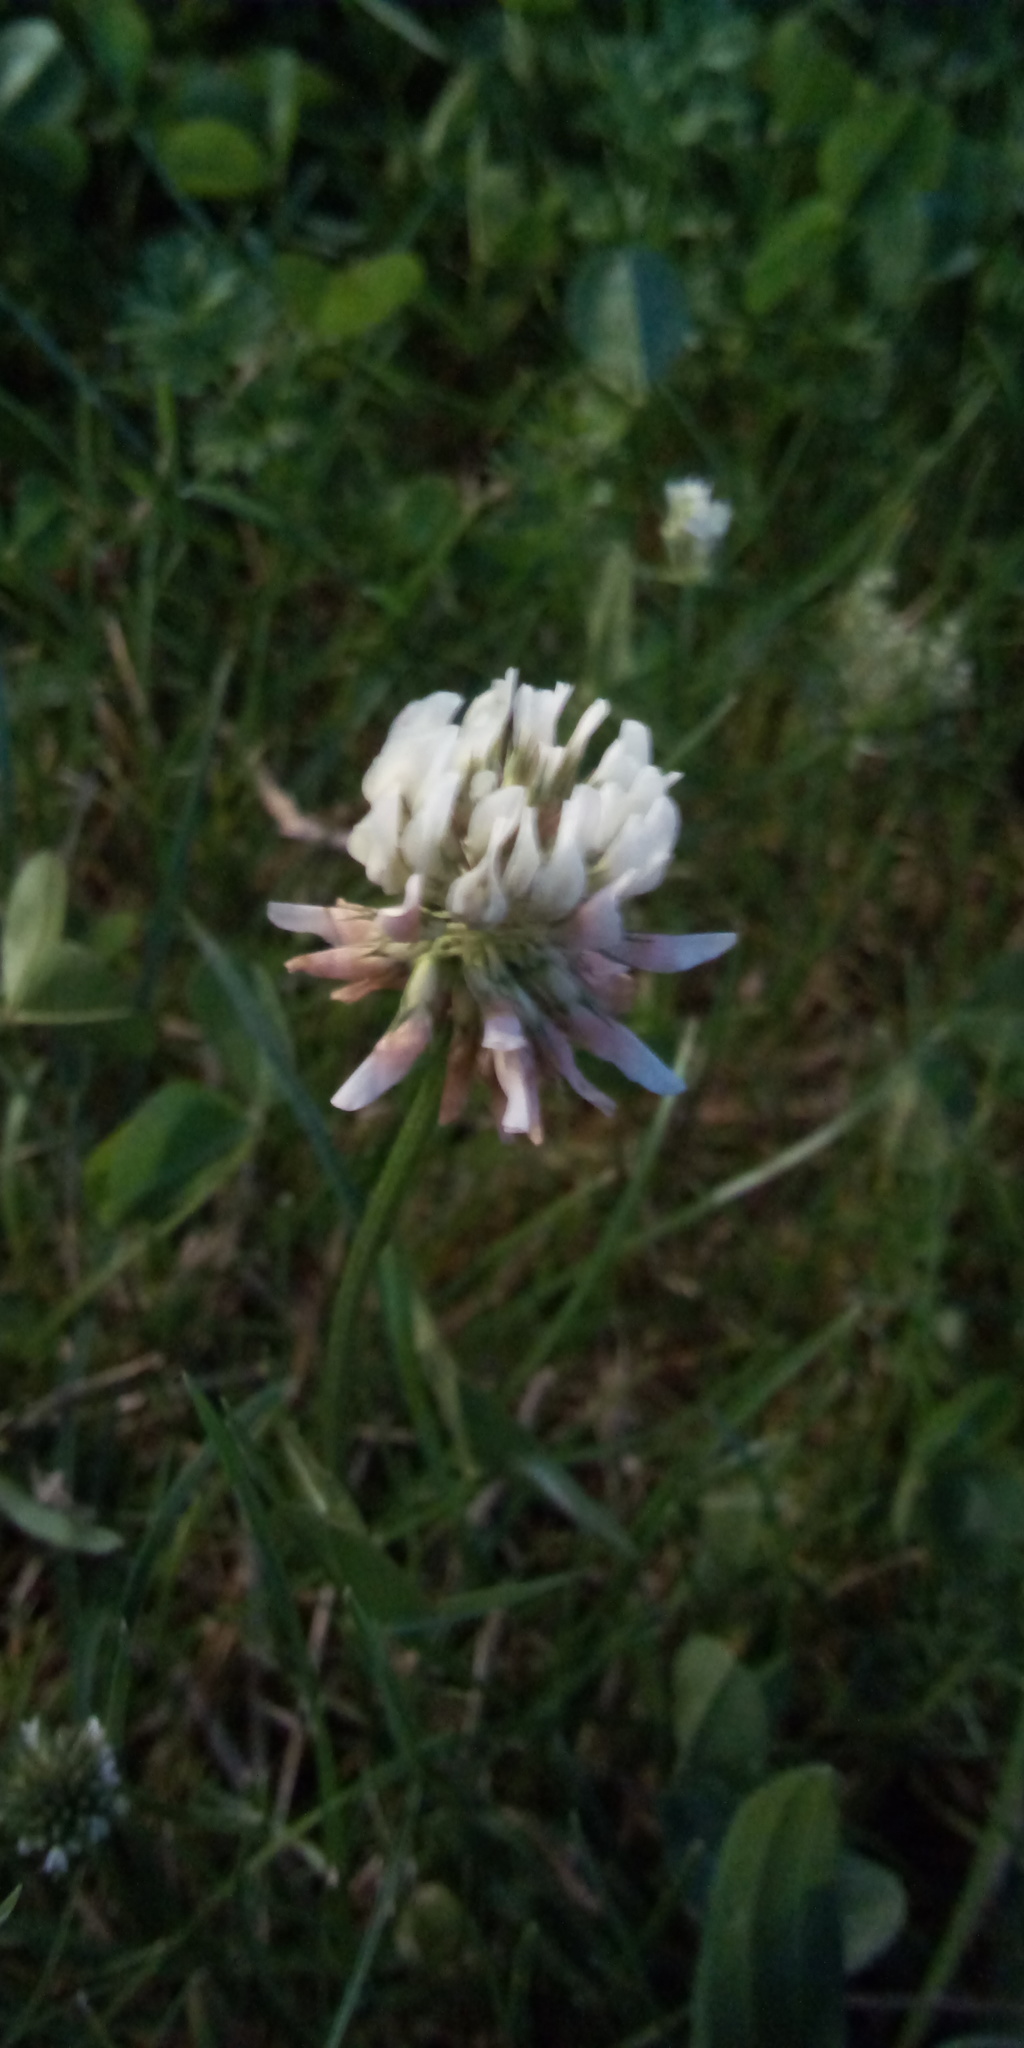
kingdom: Plantae
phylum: Tracheophyta
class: Magnoliopsida
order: Fabales
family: Fabaceae
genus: Trifolium
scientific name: Trifolium repens
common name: White clover
